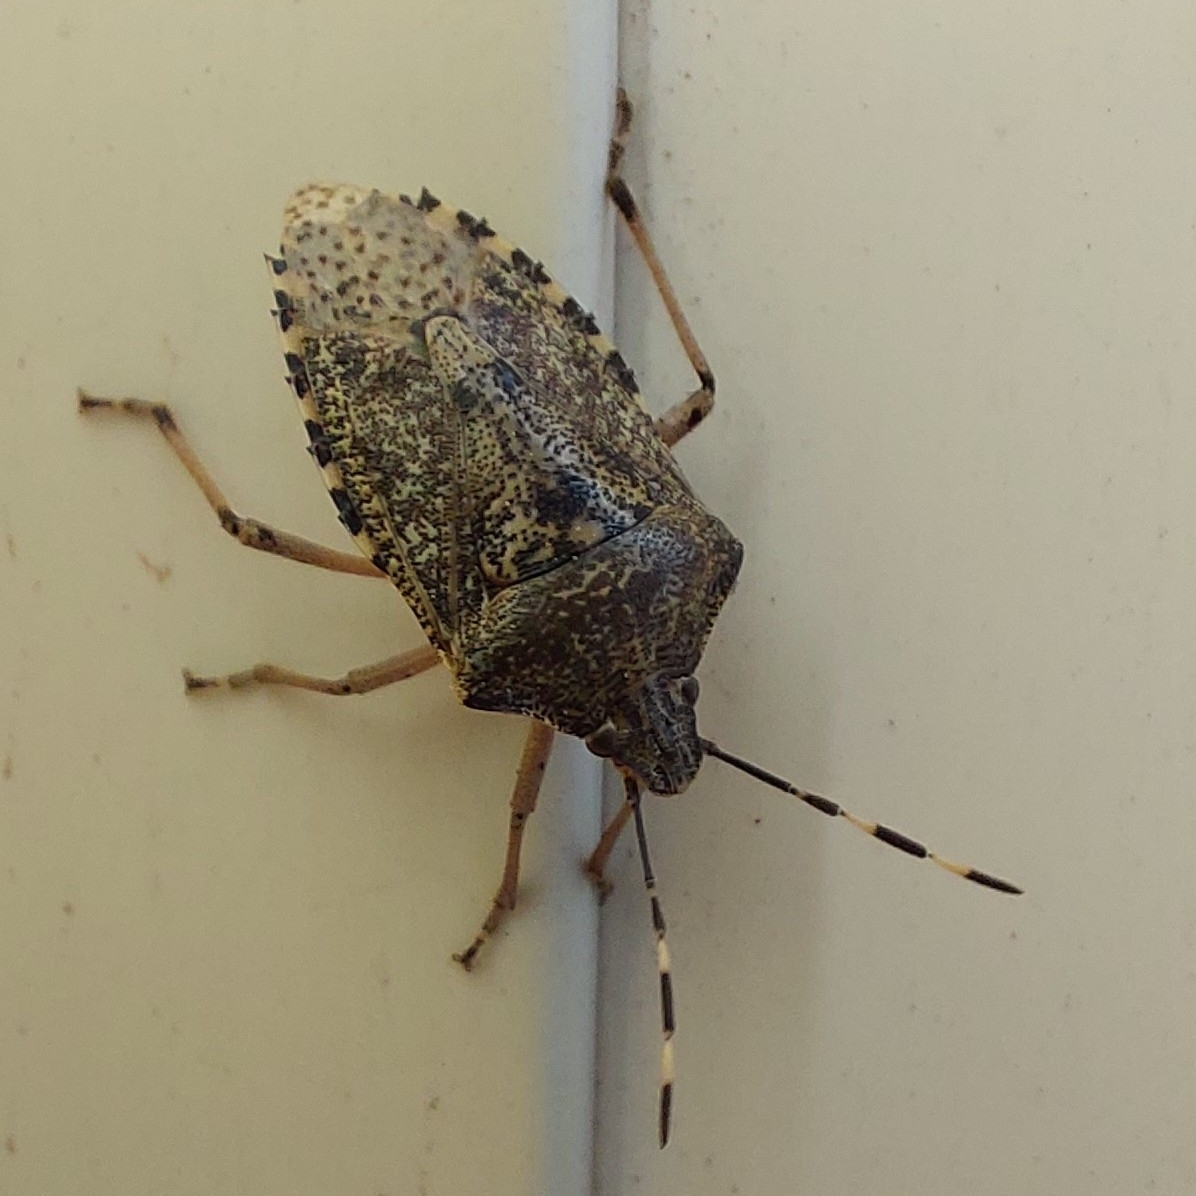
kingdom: Animalia
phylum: Arthropoda
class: Insecta
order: Hemiptera
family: Pentatomidae
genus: Rhaphigaster
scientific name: Rhaphigaster nebulosa
